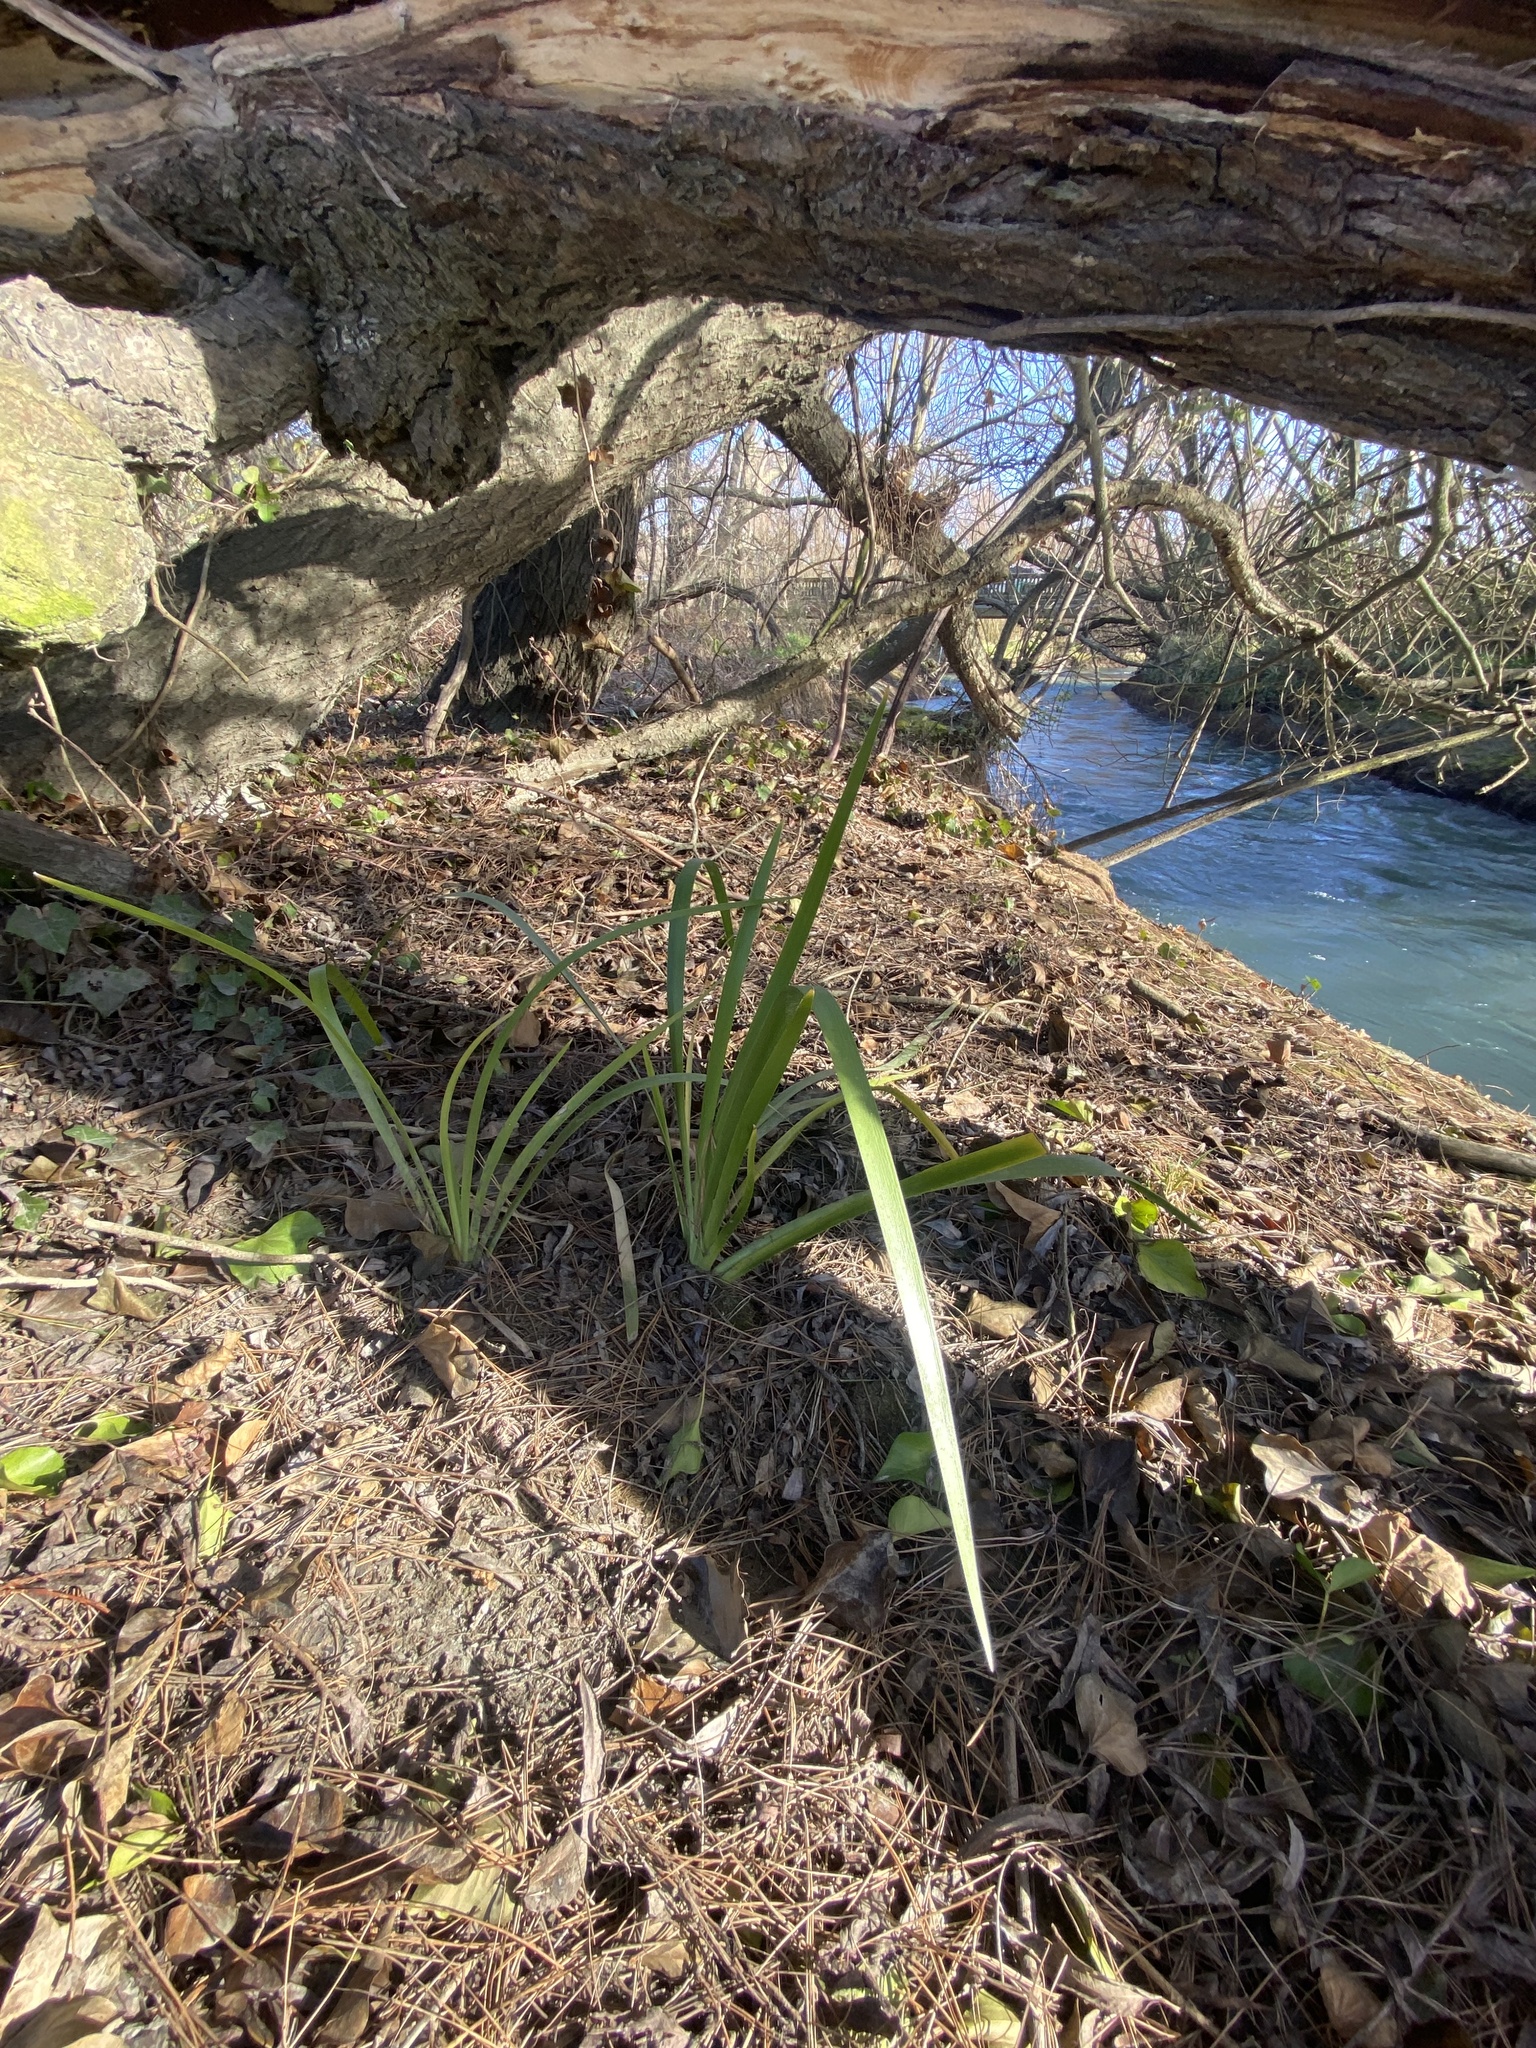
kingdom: Plantae
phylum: Tracheophyta
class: Liliopsida
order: Asparagales
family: Iridaceae
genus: Iris
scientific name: Iris foetidissima
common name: Stinking iris
